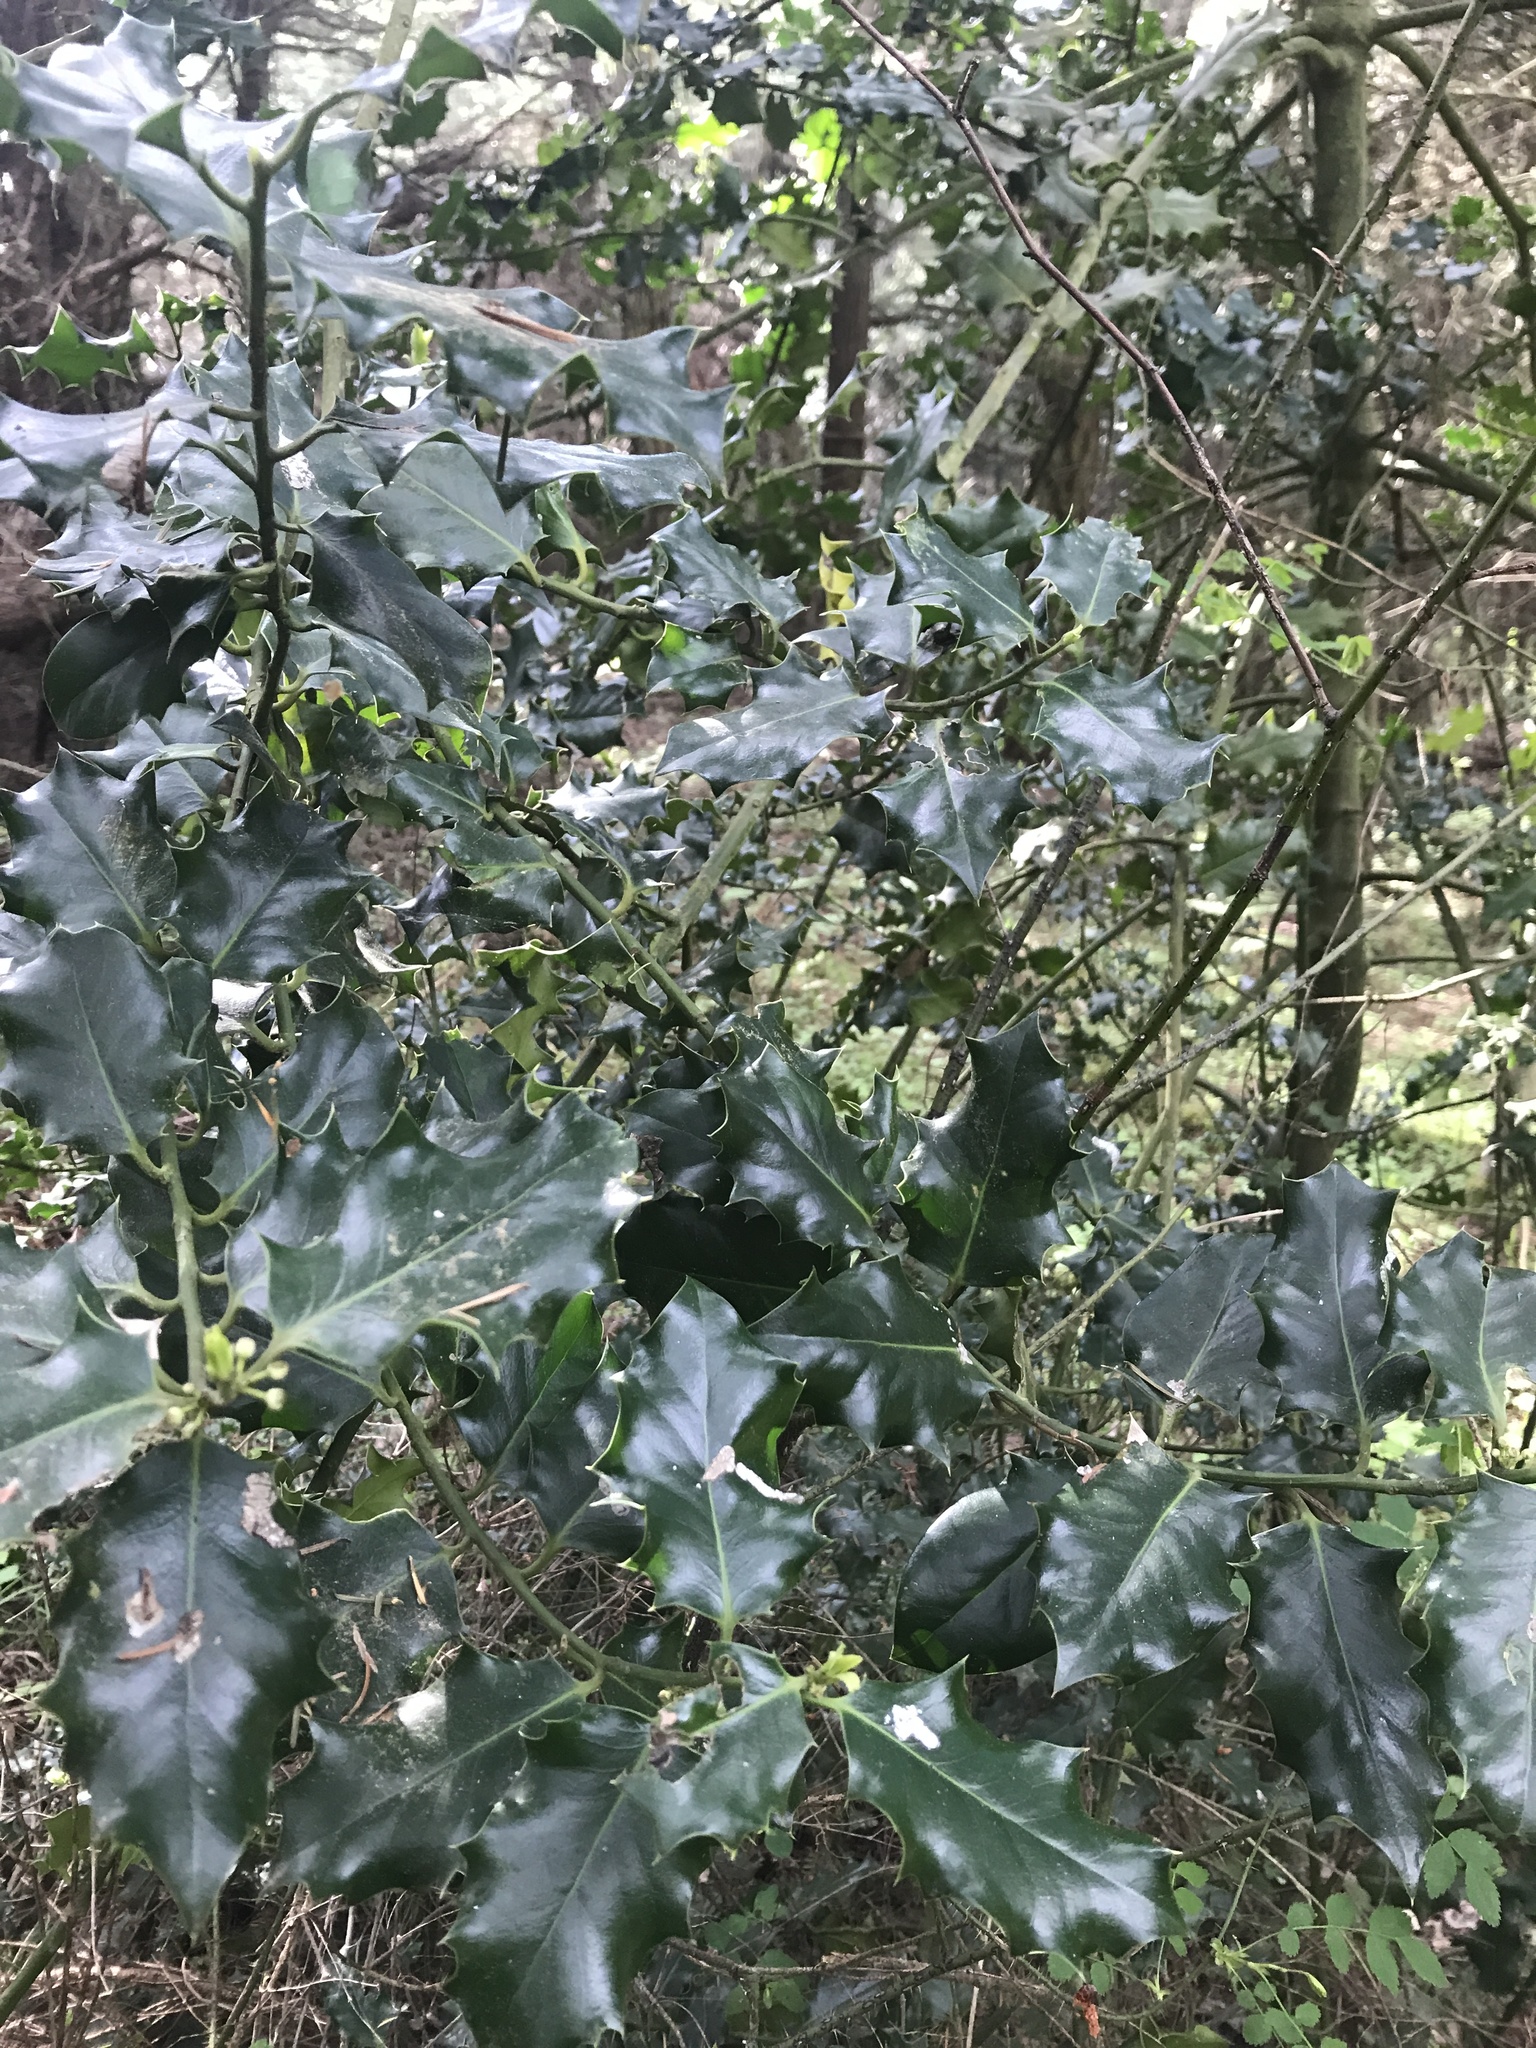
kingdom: Plantae
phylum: Tracheophyta
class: Magnoliopsida
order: Aquifoliales
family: Aquifoliaceae
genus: Ilex
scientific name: Ilex aquifolium
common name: English holly
